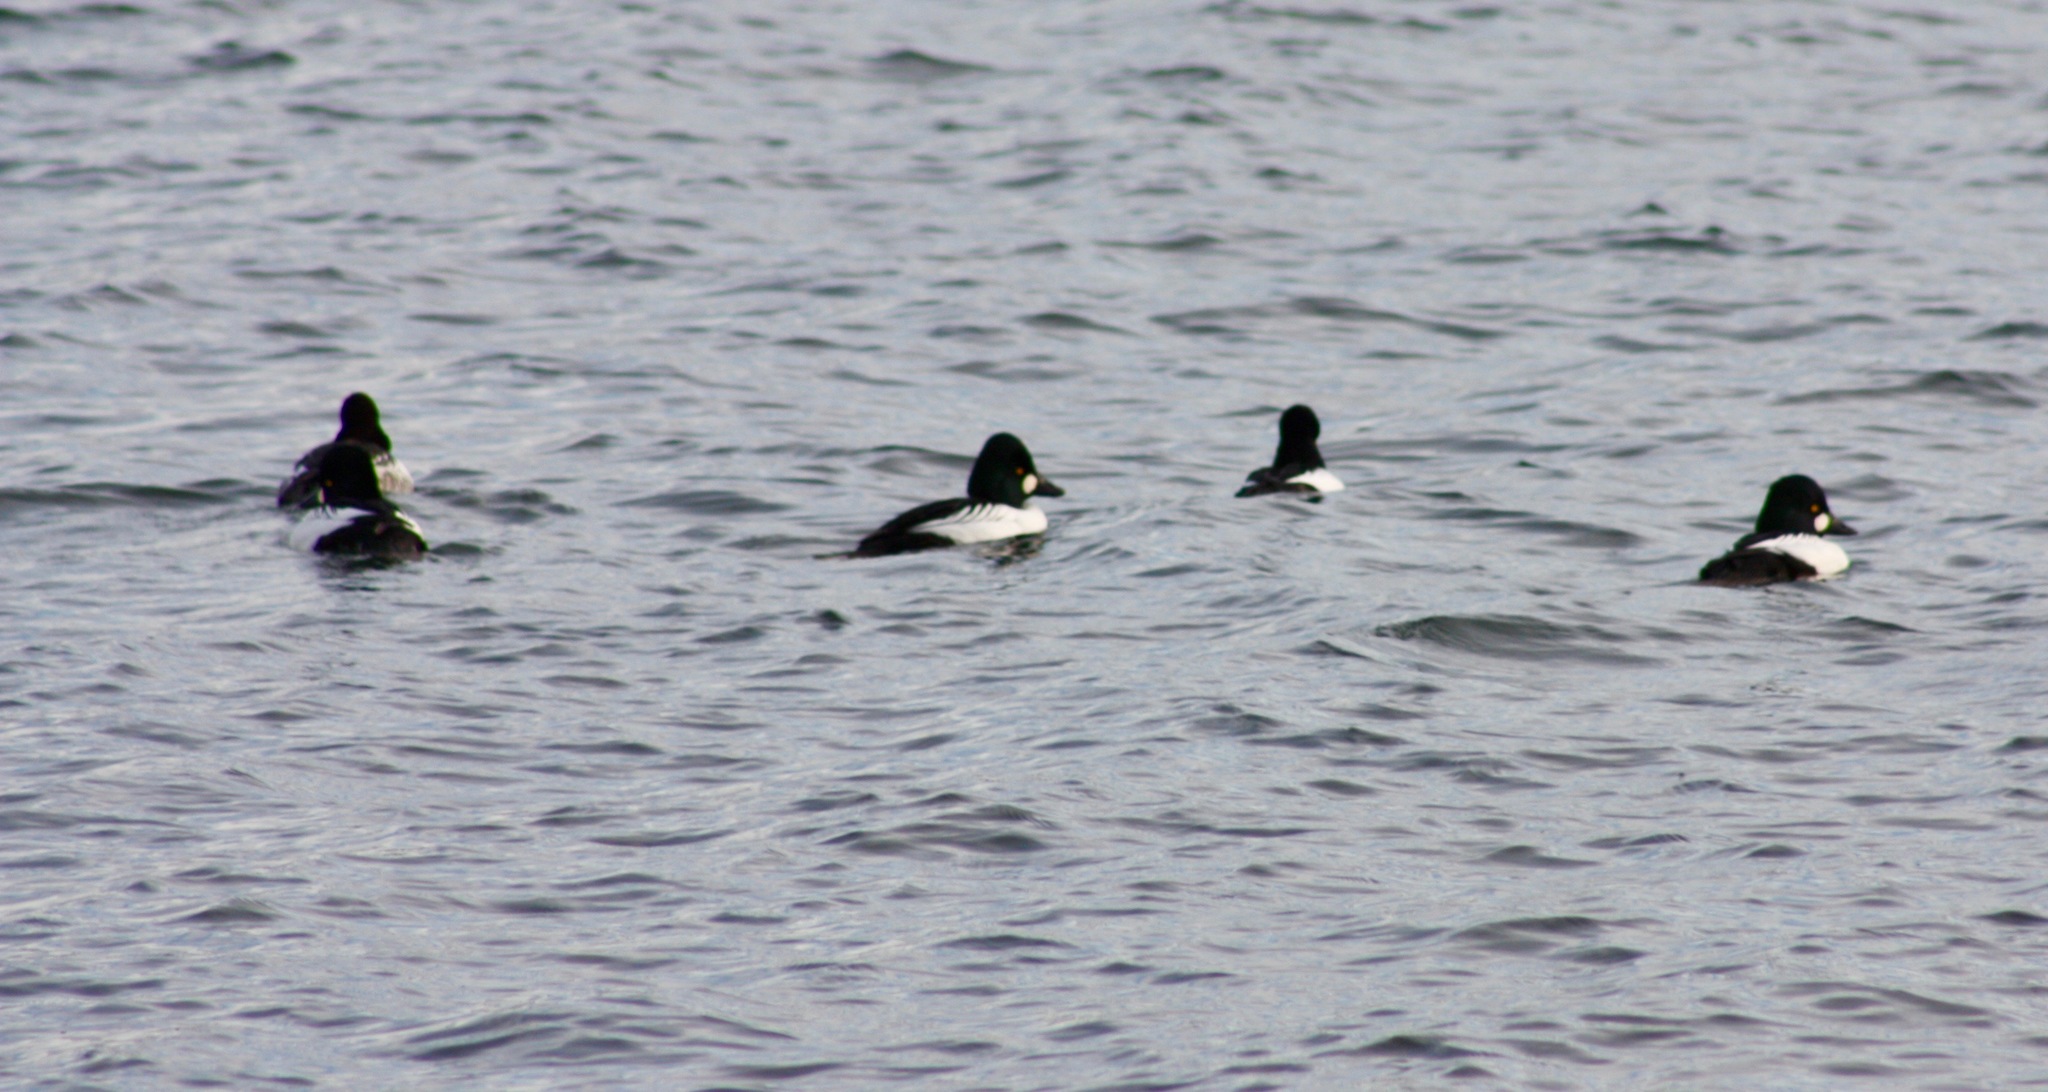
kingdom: Animalia
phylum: Chordata
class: Aves
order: Anseriformes
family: Anatidae
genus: Bucephala
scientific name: Bucephala clangula
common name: Common goldeneye
